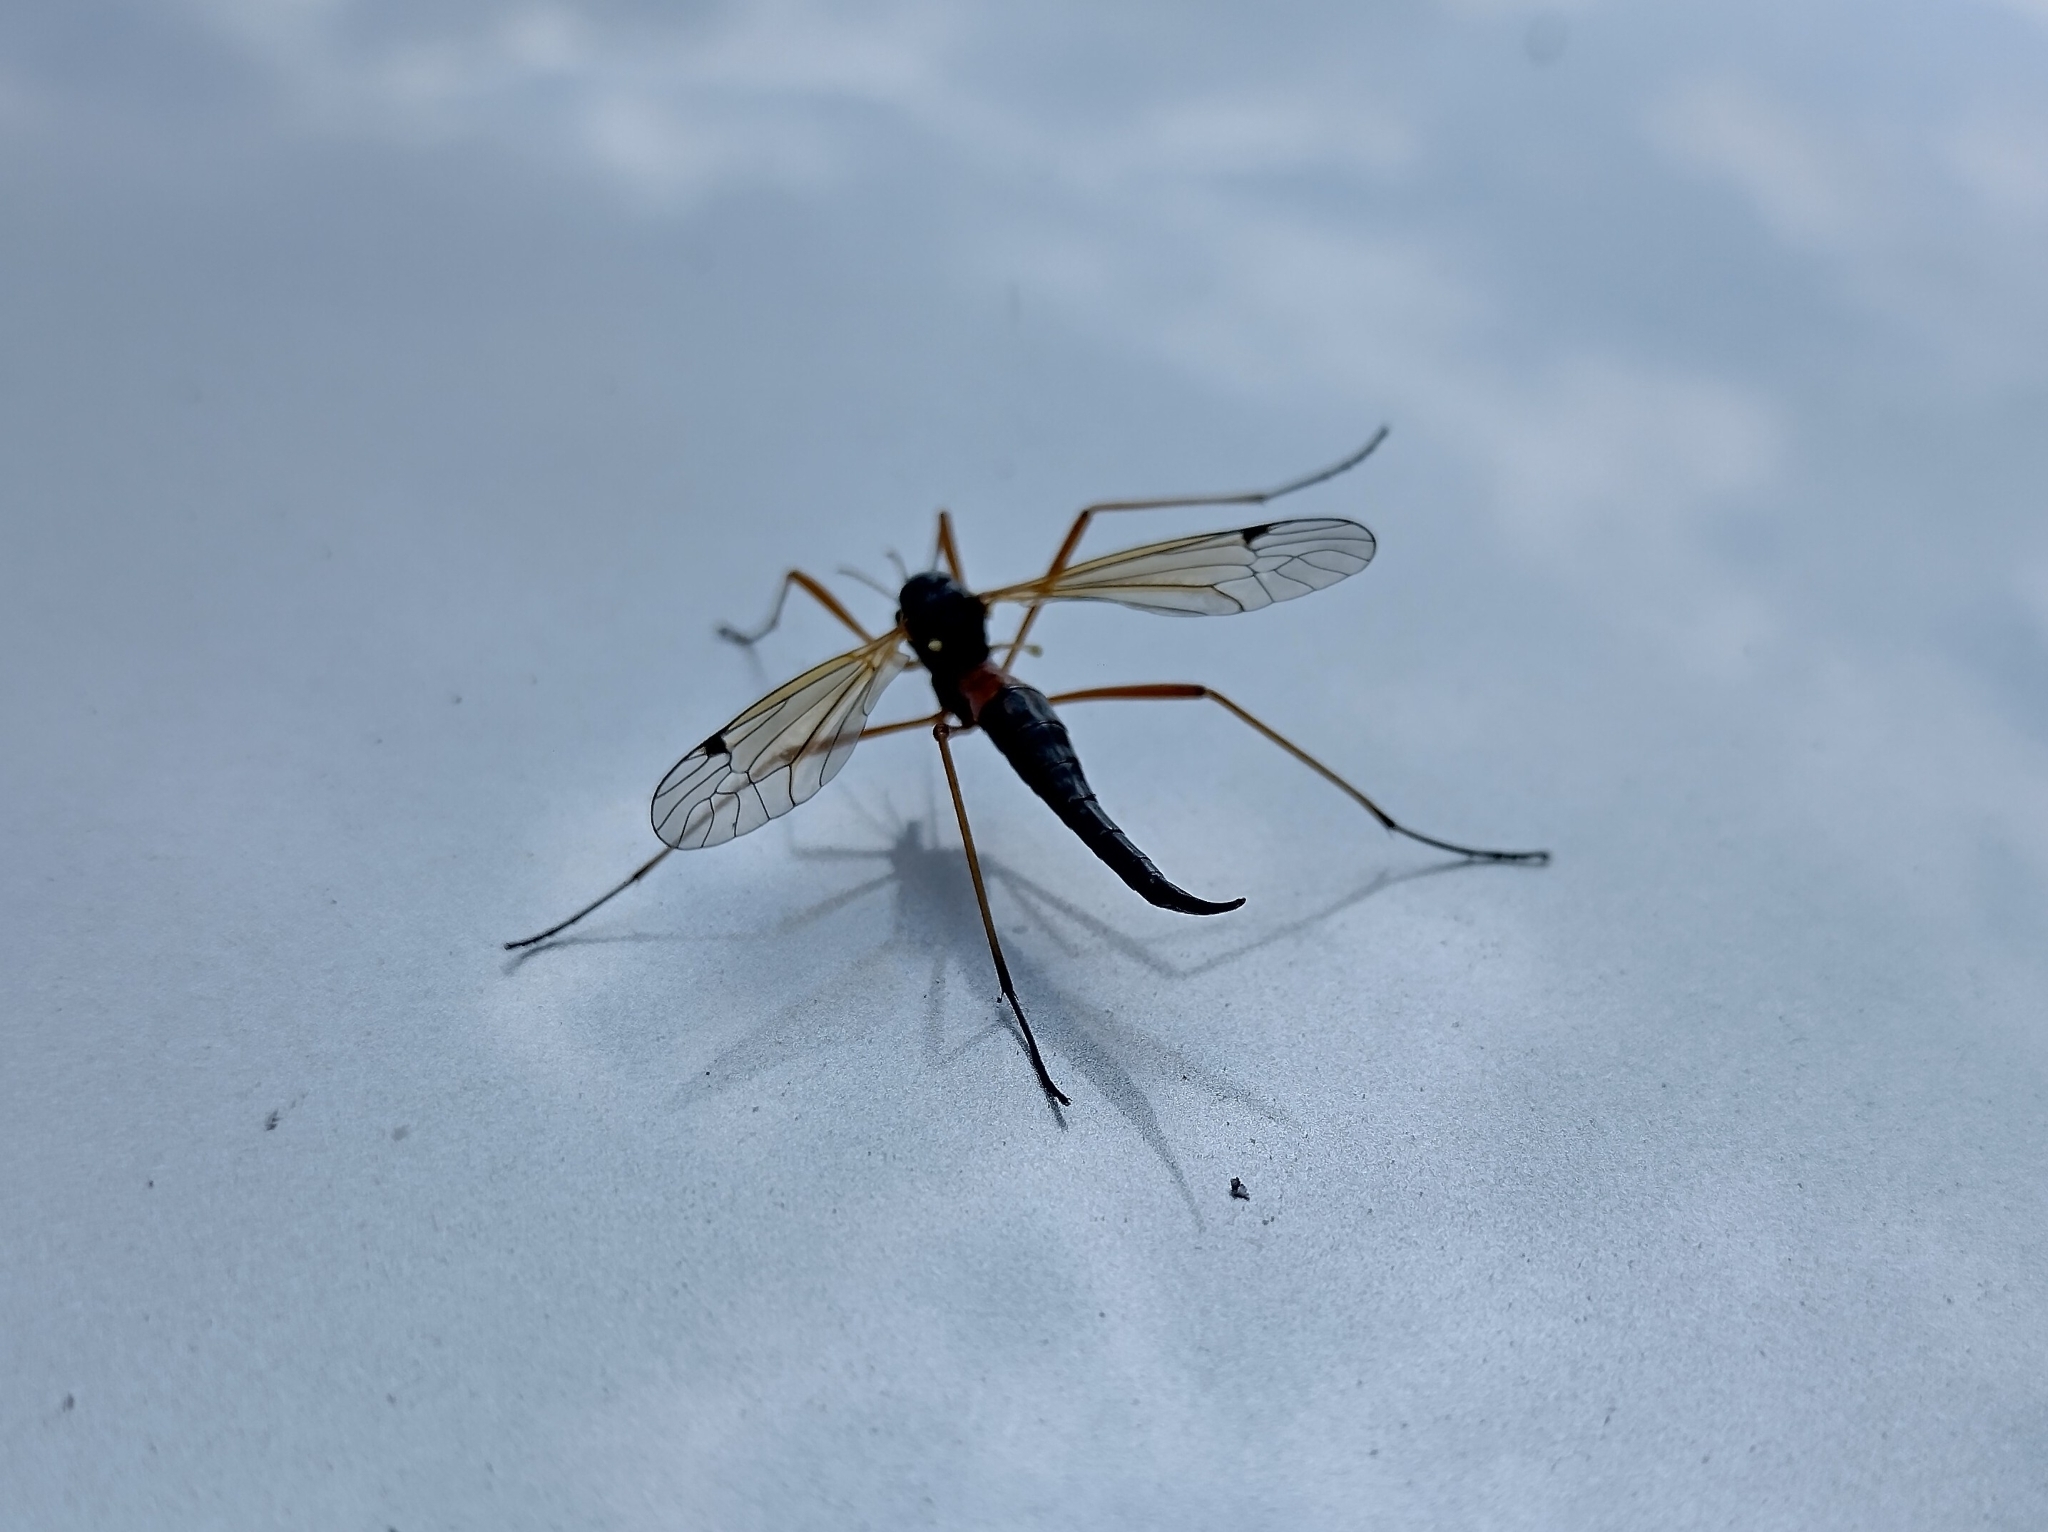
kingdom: Animalia
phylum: Arthropoda
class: Insecta
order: Diptera
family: Tipulidae
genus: Tanyptera
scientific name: Tanyptera atrata
